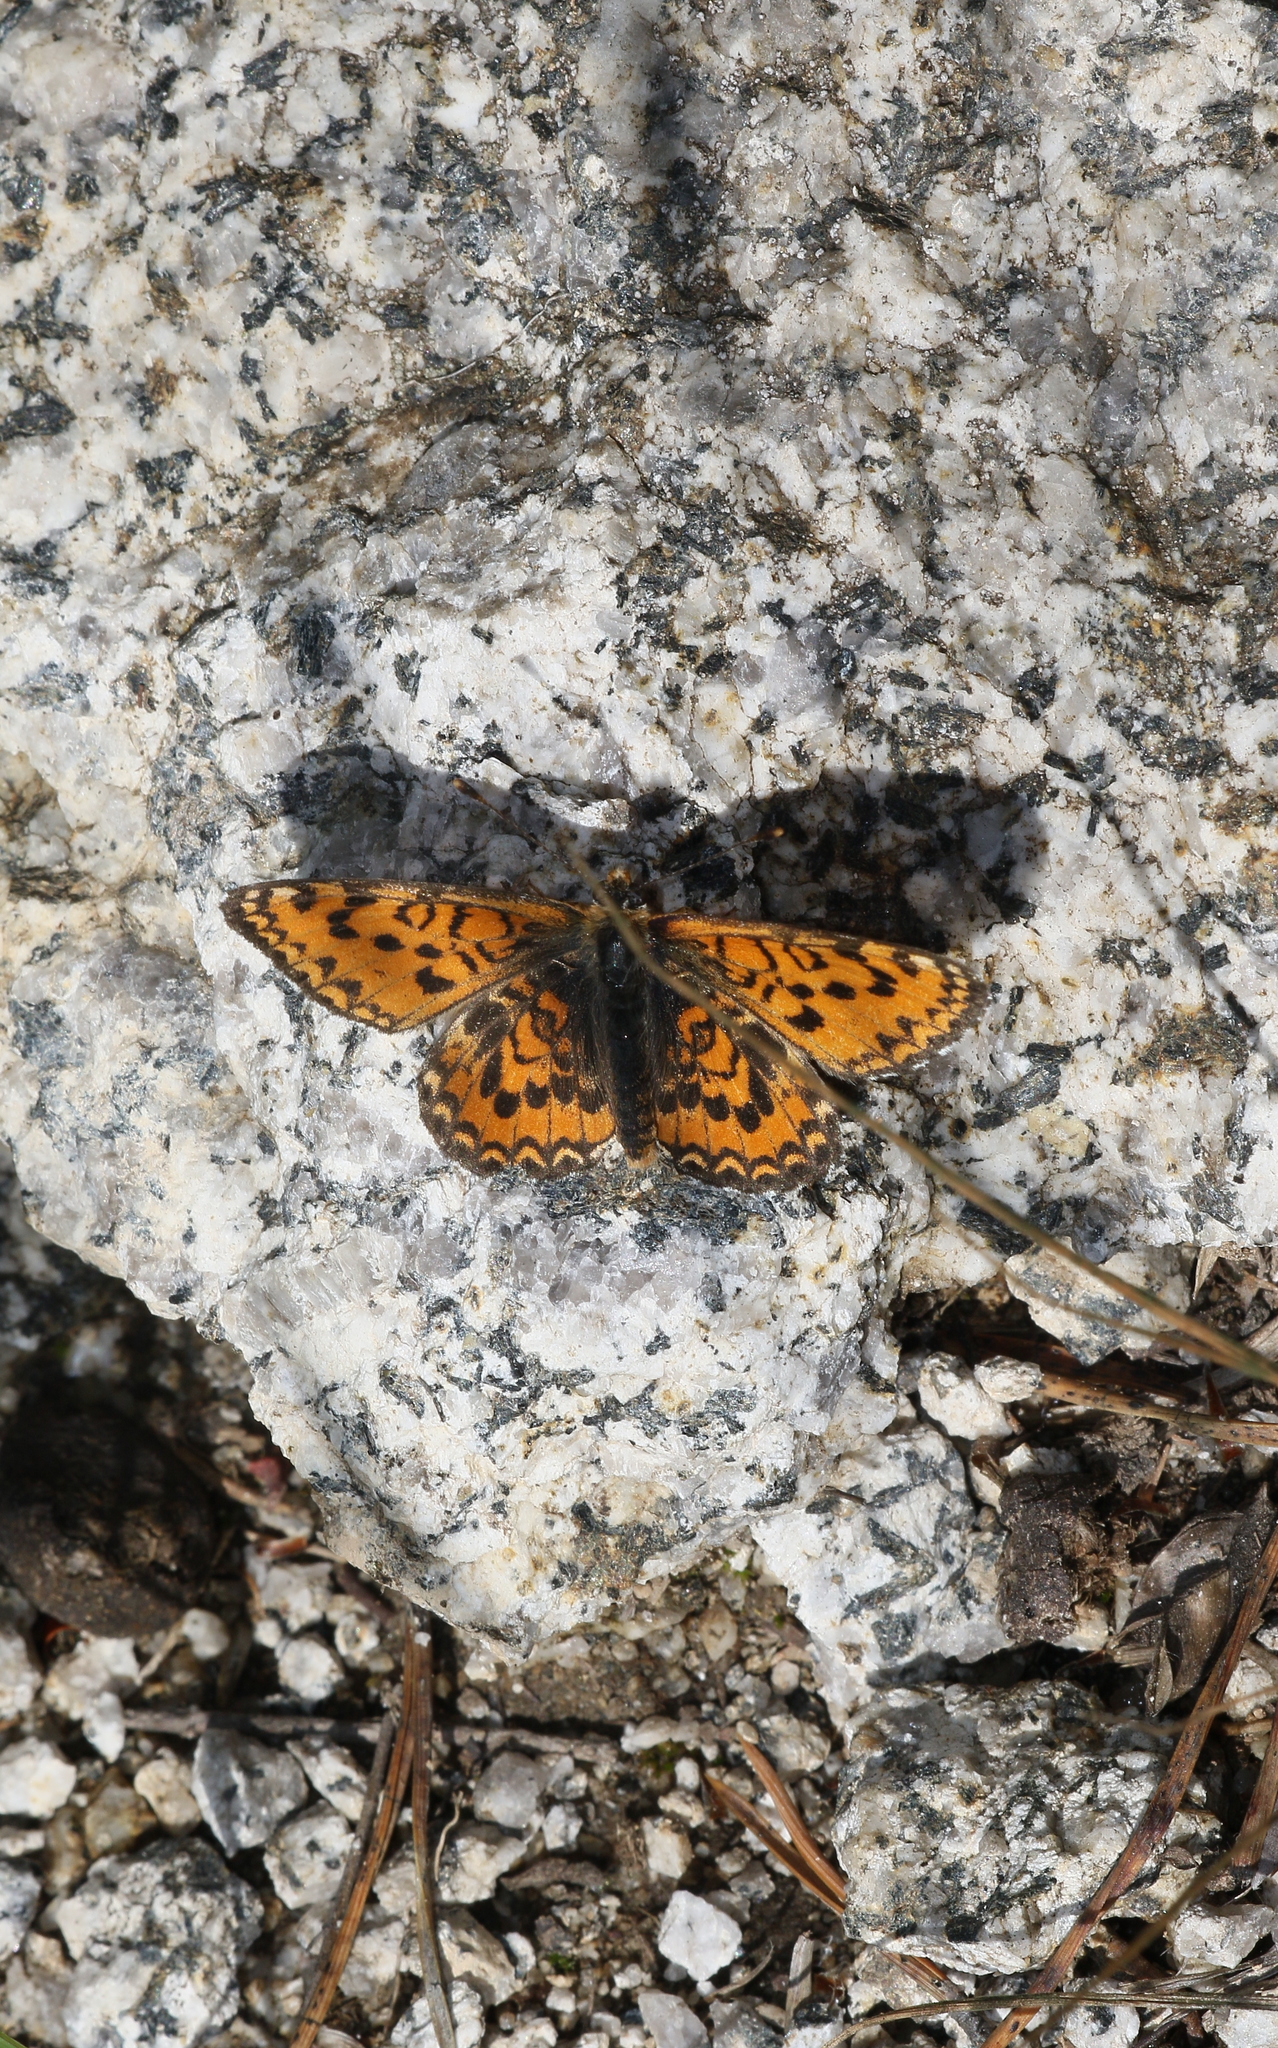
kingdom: Animalia
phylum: Arthropoda
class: Insecta
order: Lepidoptera
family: Nymphalidae
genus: Melitaea
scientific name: Melitaea trivia
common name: Lesser spotted fritillary
